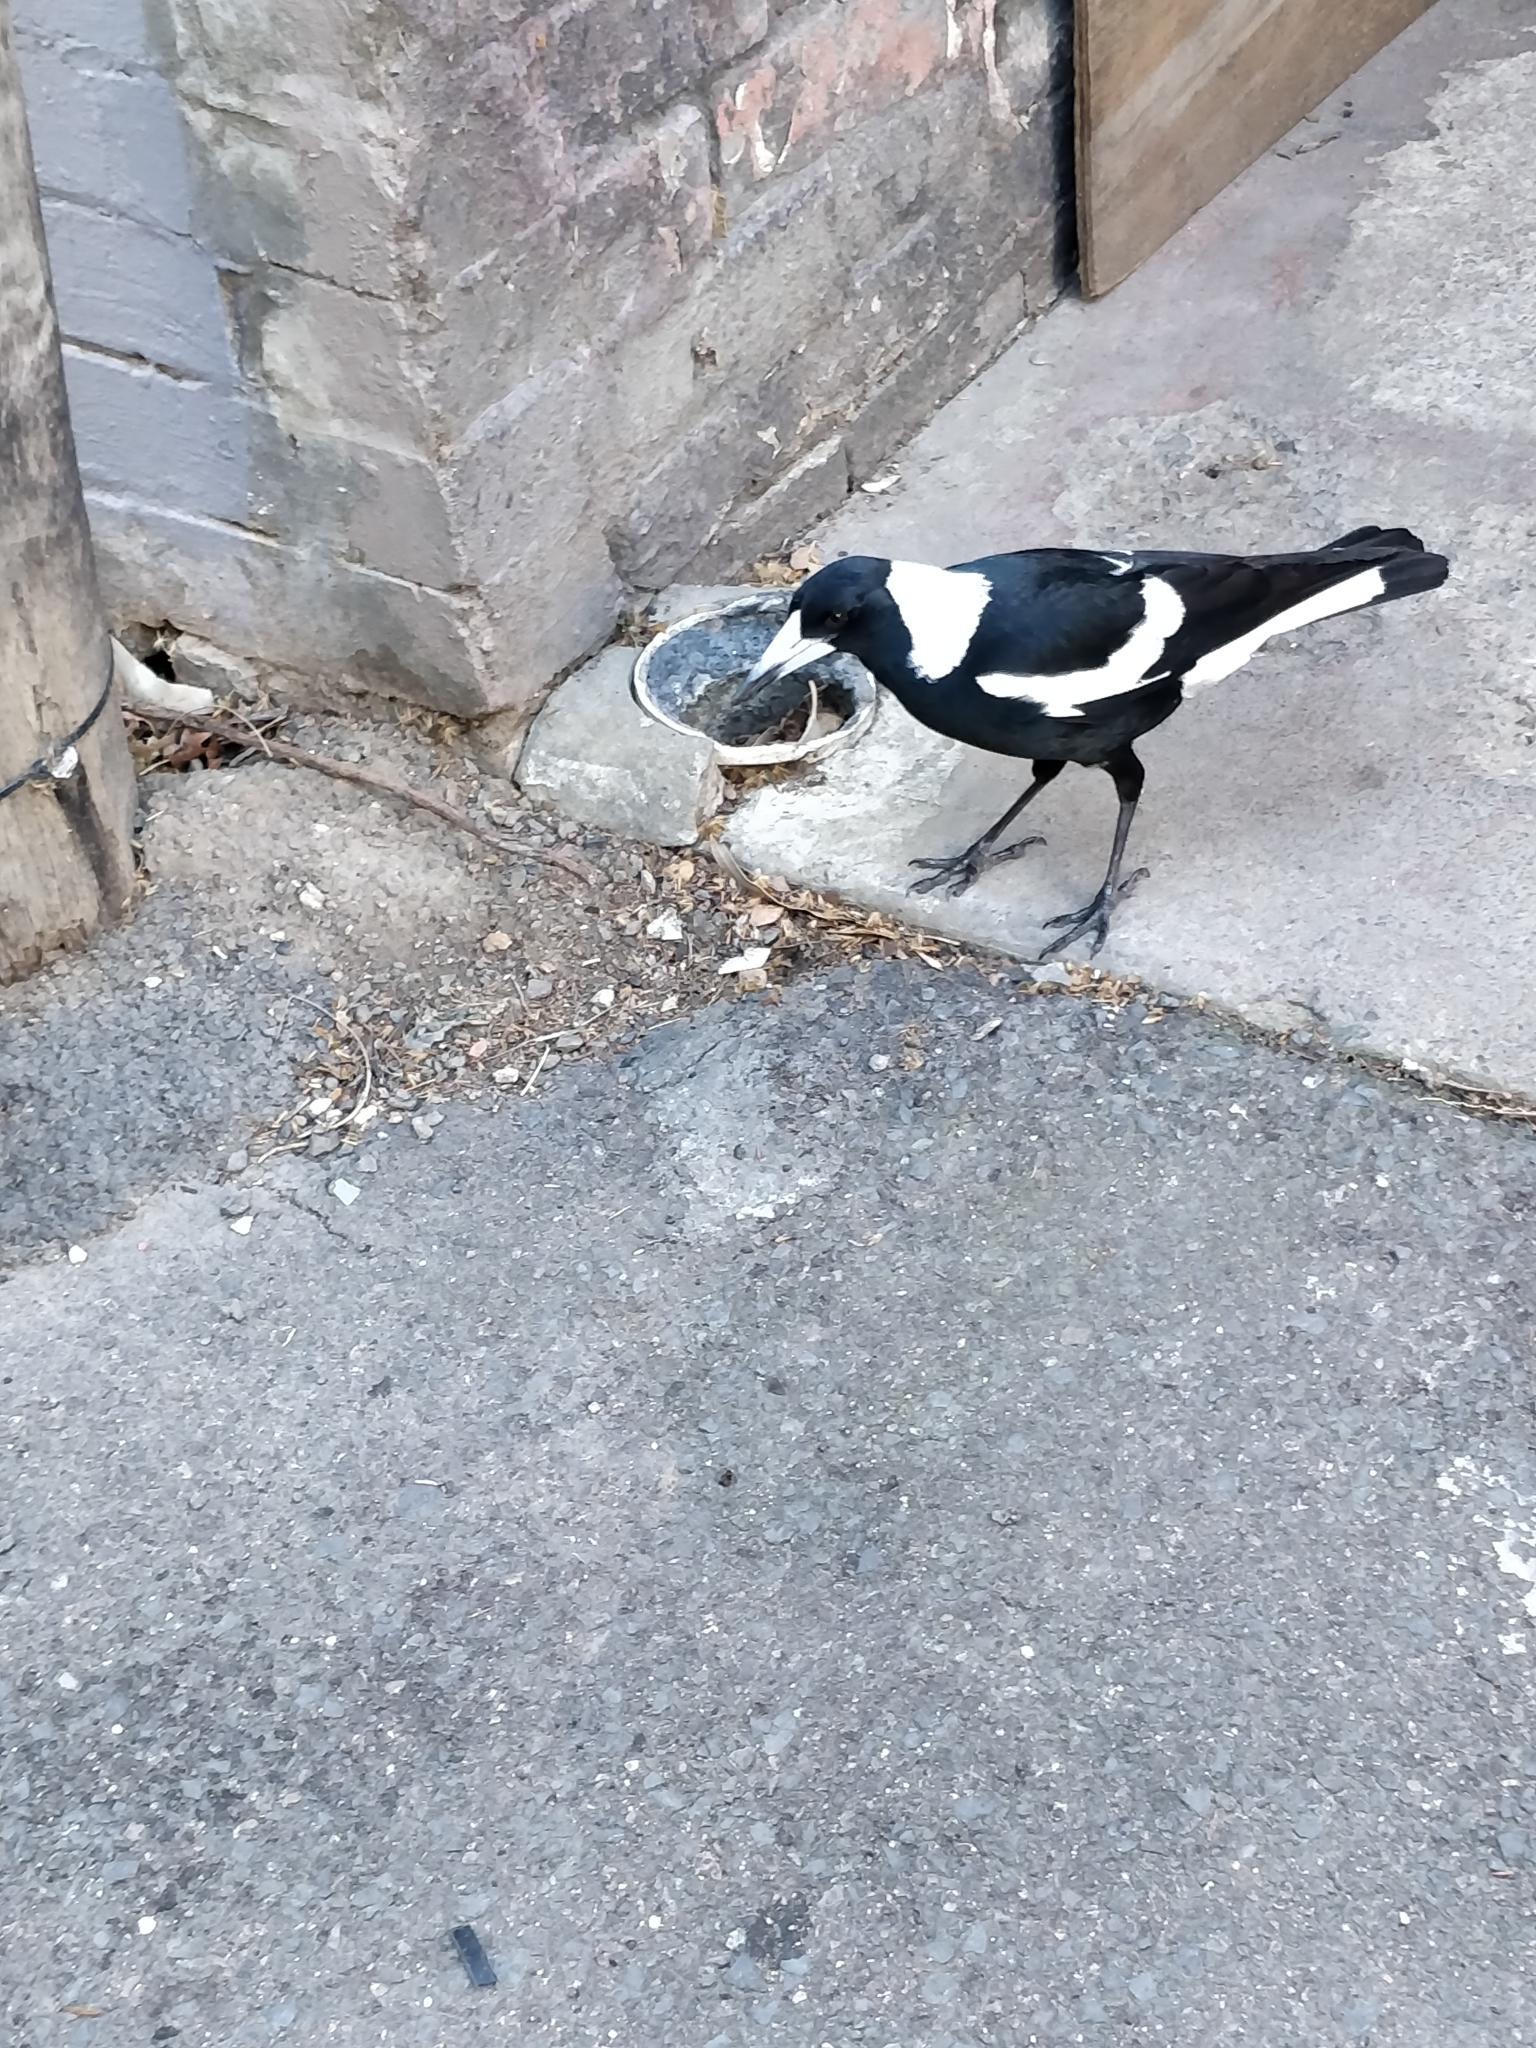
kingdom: Animalia
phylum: Chordata
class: Aves
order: Passeriformes
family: Cracticidae
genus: Gymnorhina
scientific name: Gymnorhina tibicen
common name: Australian magpie
